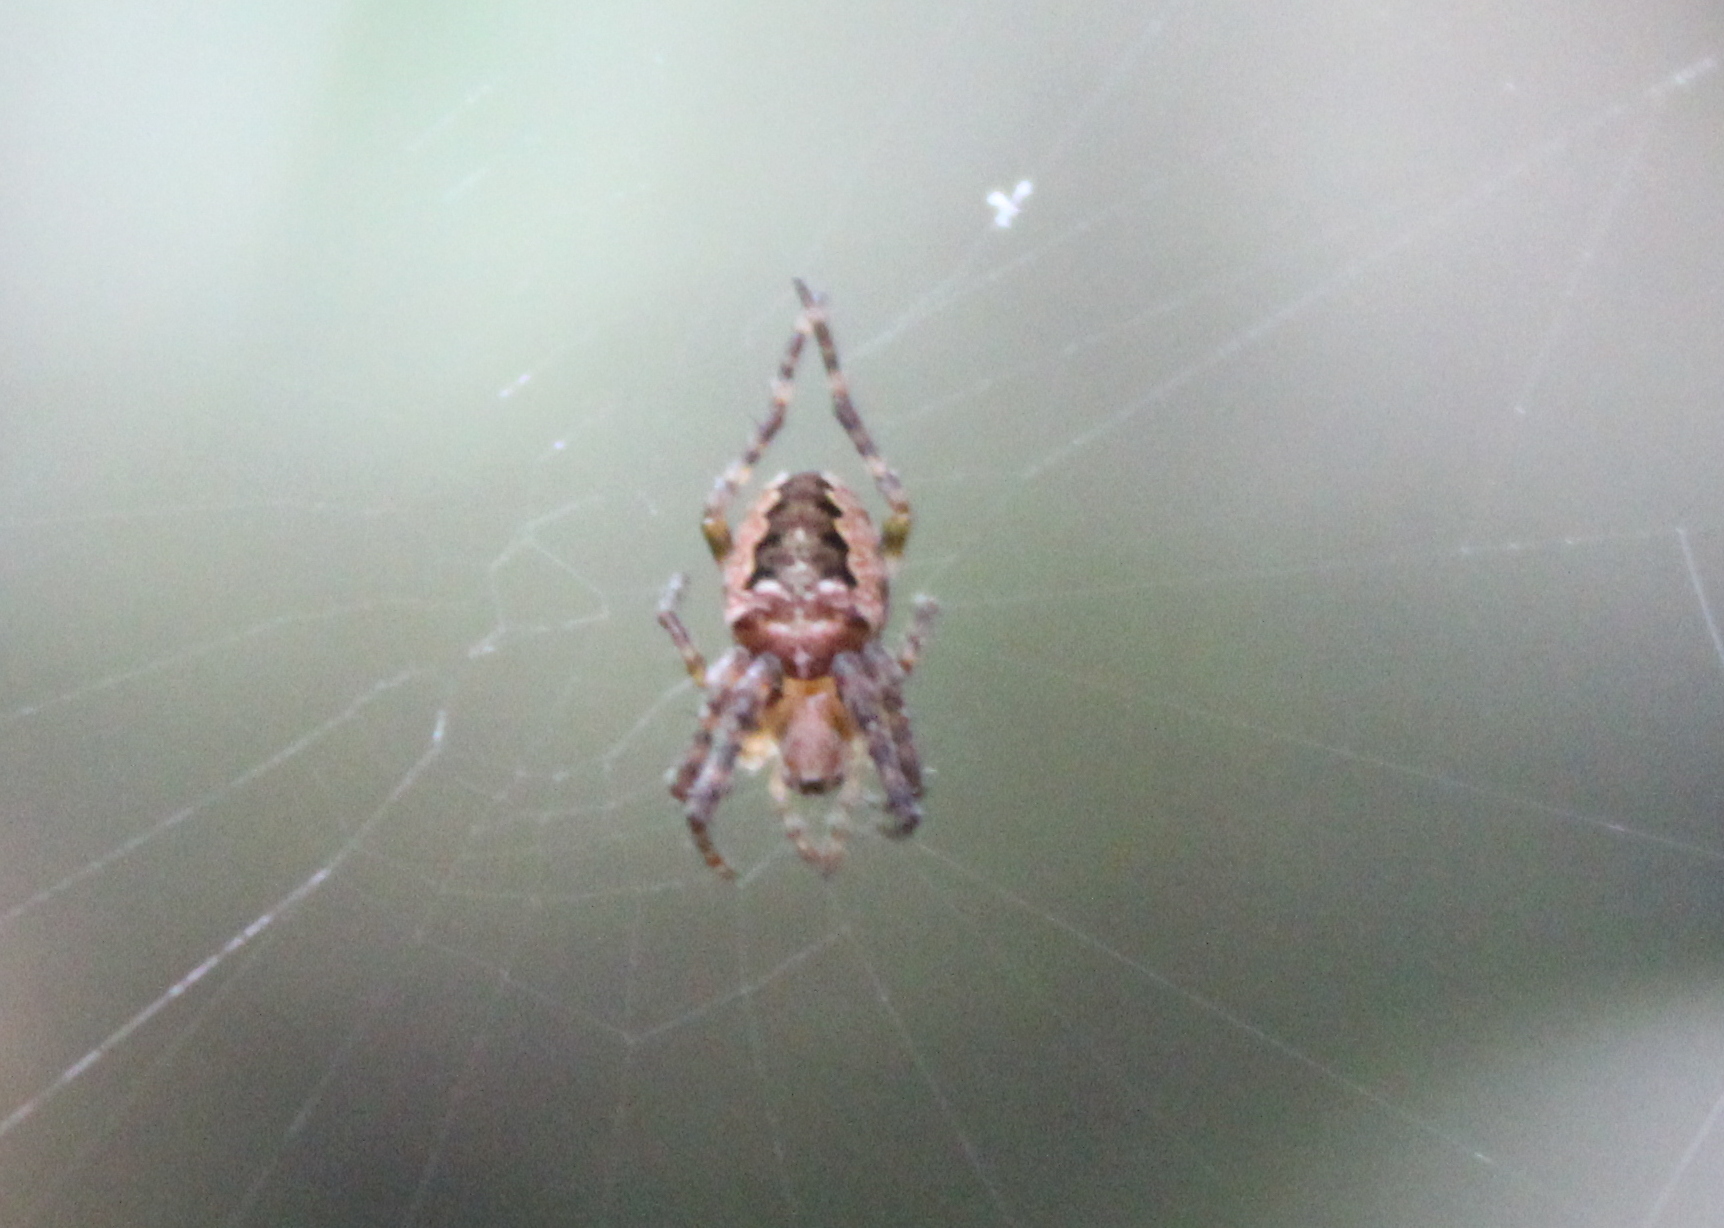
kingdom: Animalia
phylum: Arthropoda
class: Arachnida
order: Araneae
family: Araneidae
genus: Araneus
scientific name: Araneus nordmanni
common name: Nordmann's orbweaver
